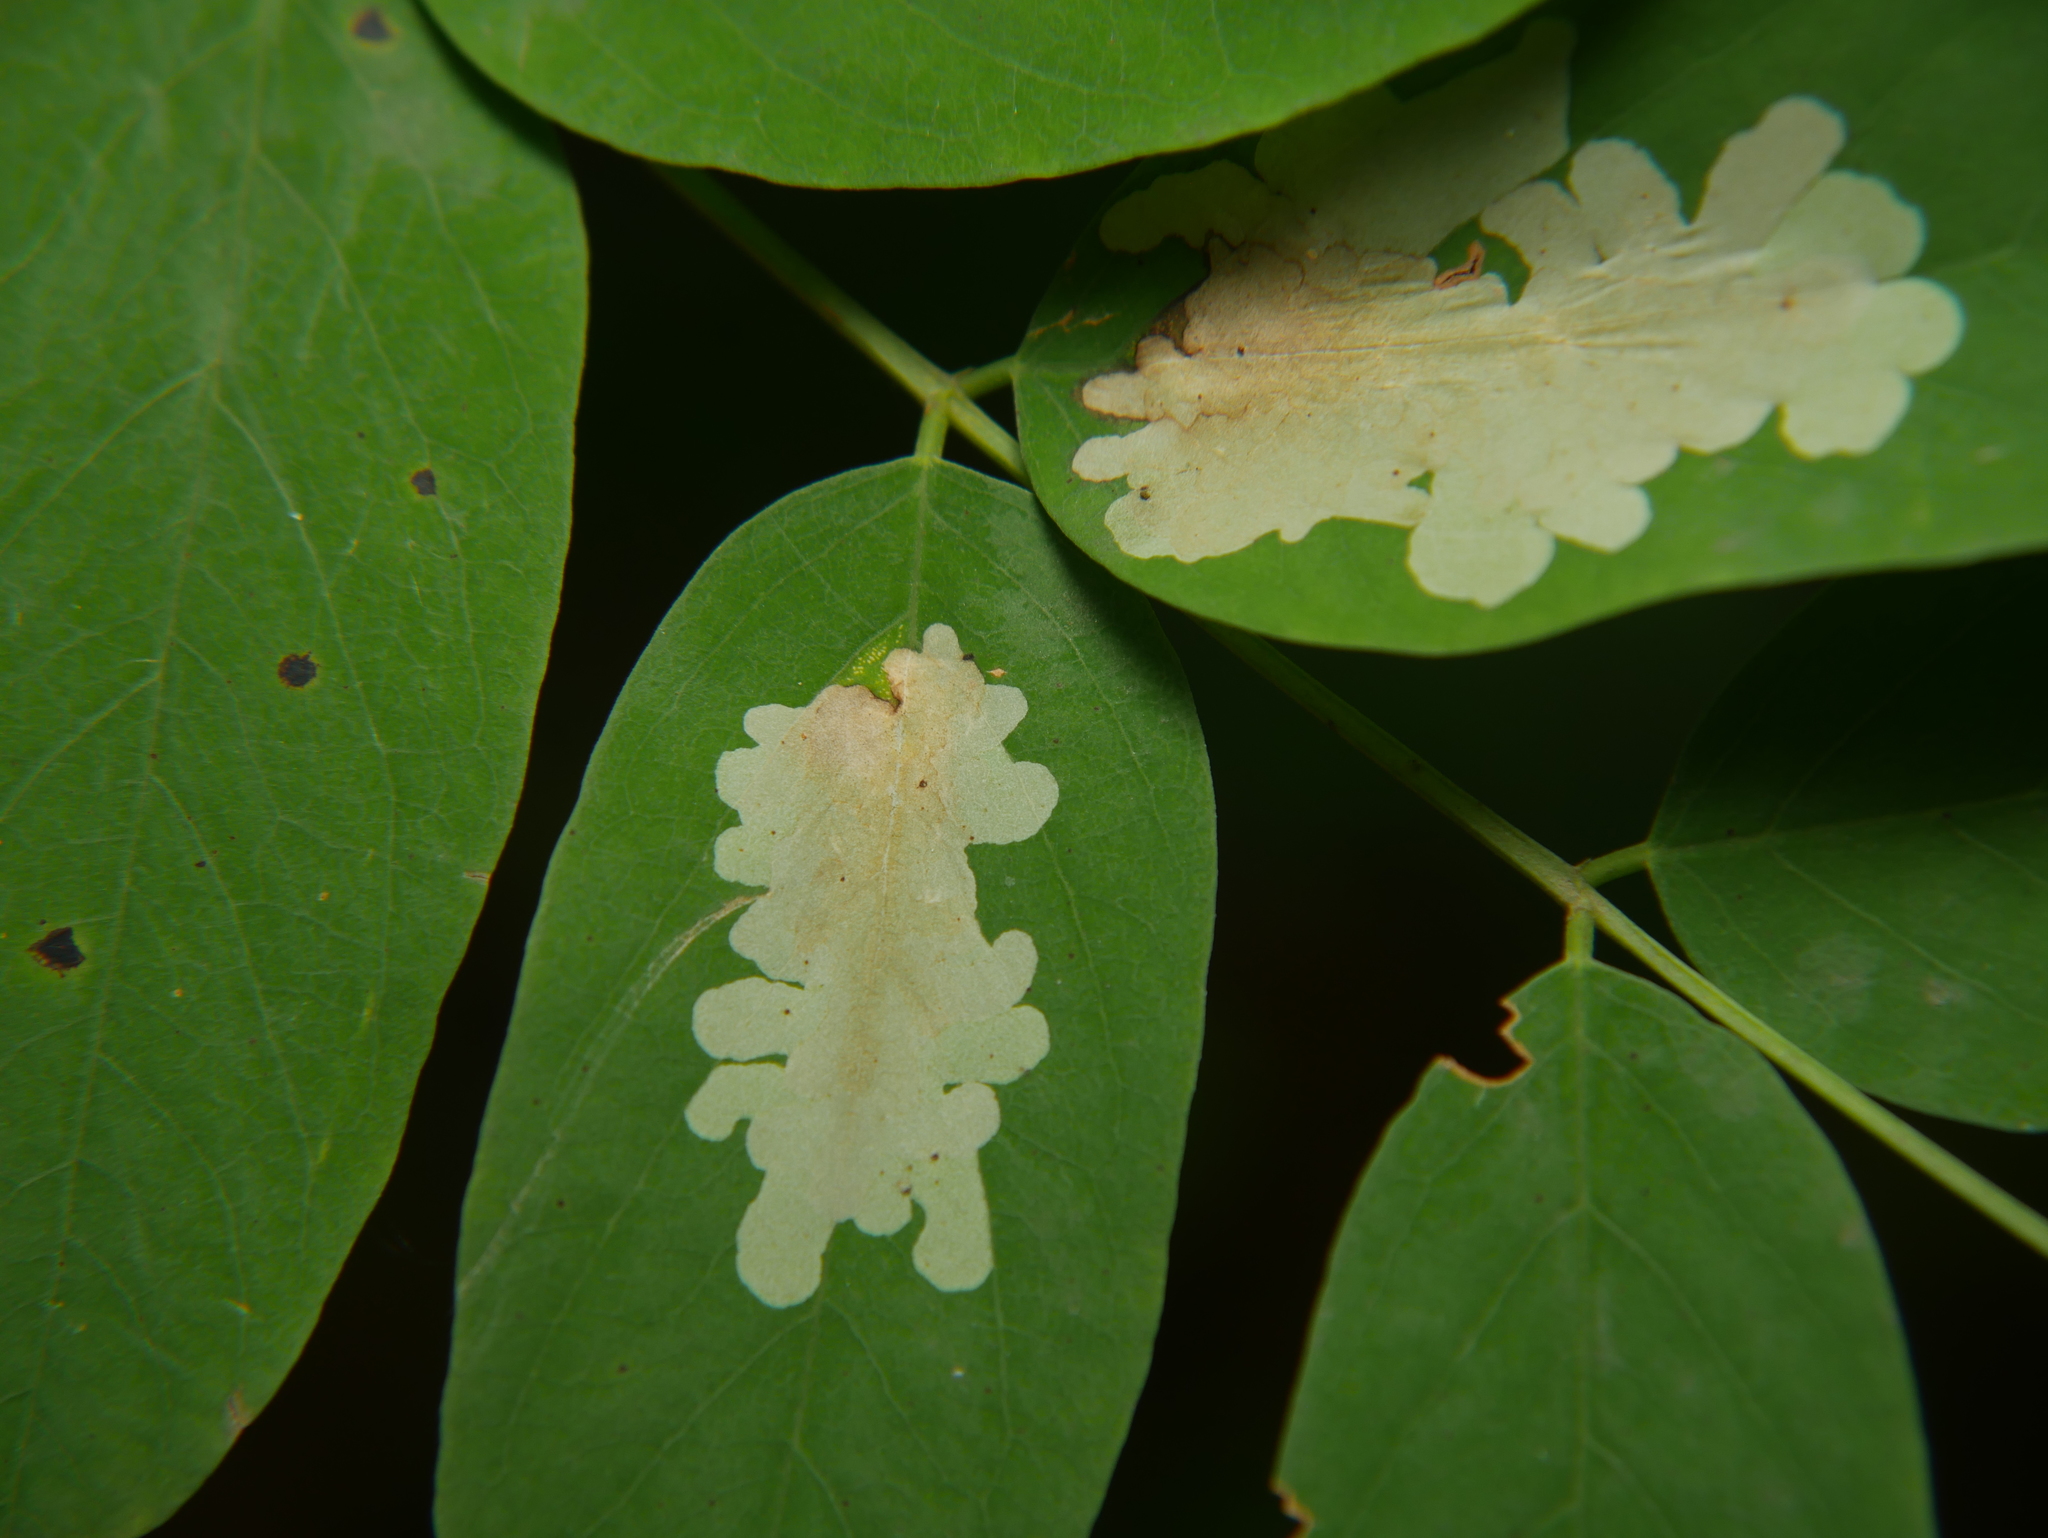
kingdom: Animalia
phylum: Arthropoda
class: Insecta
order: Lepidoptera
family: Gracillariidae
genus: Parectopa
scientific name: Parectopa robiniella
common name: Locust digitate leafminer
